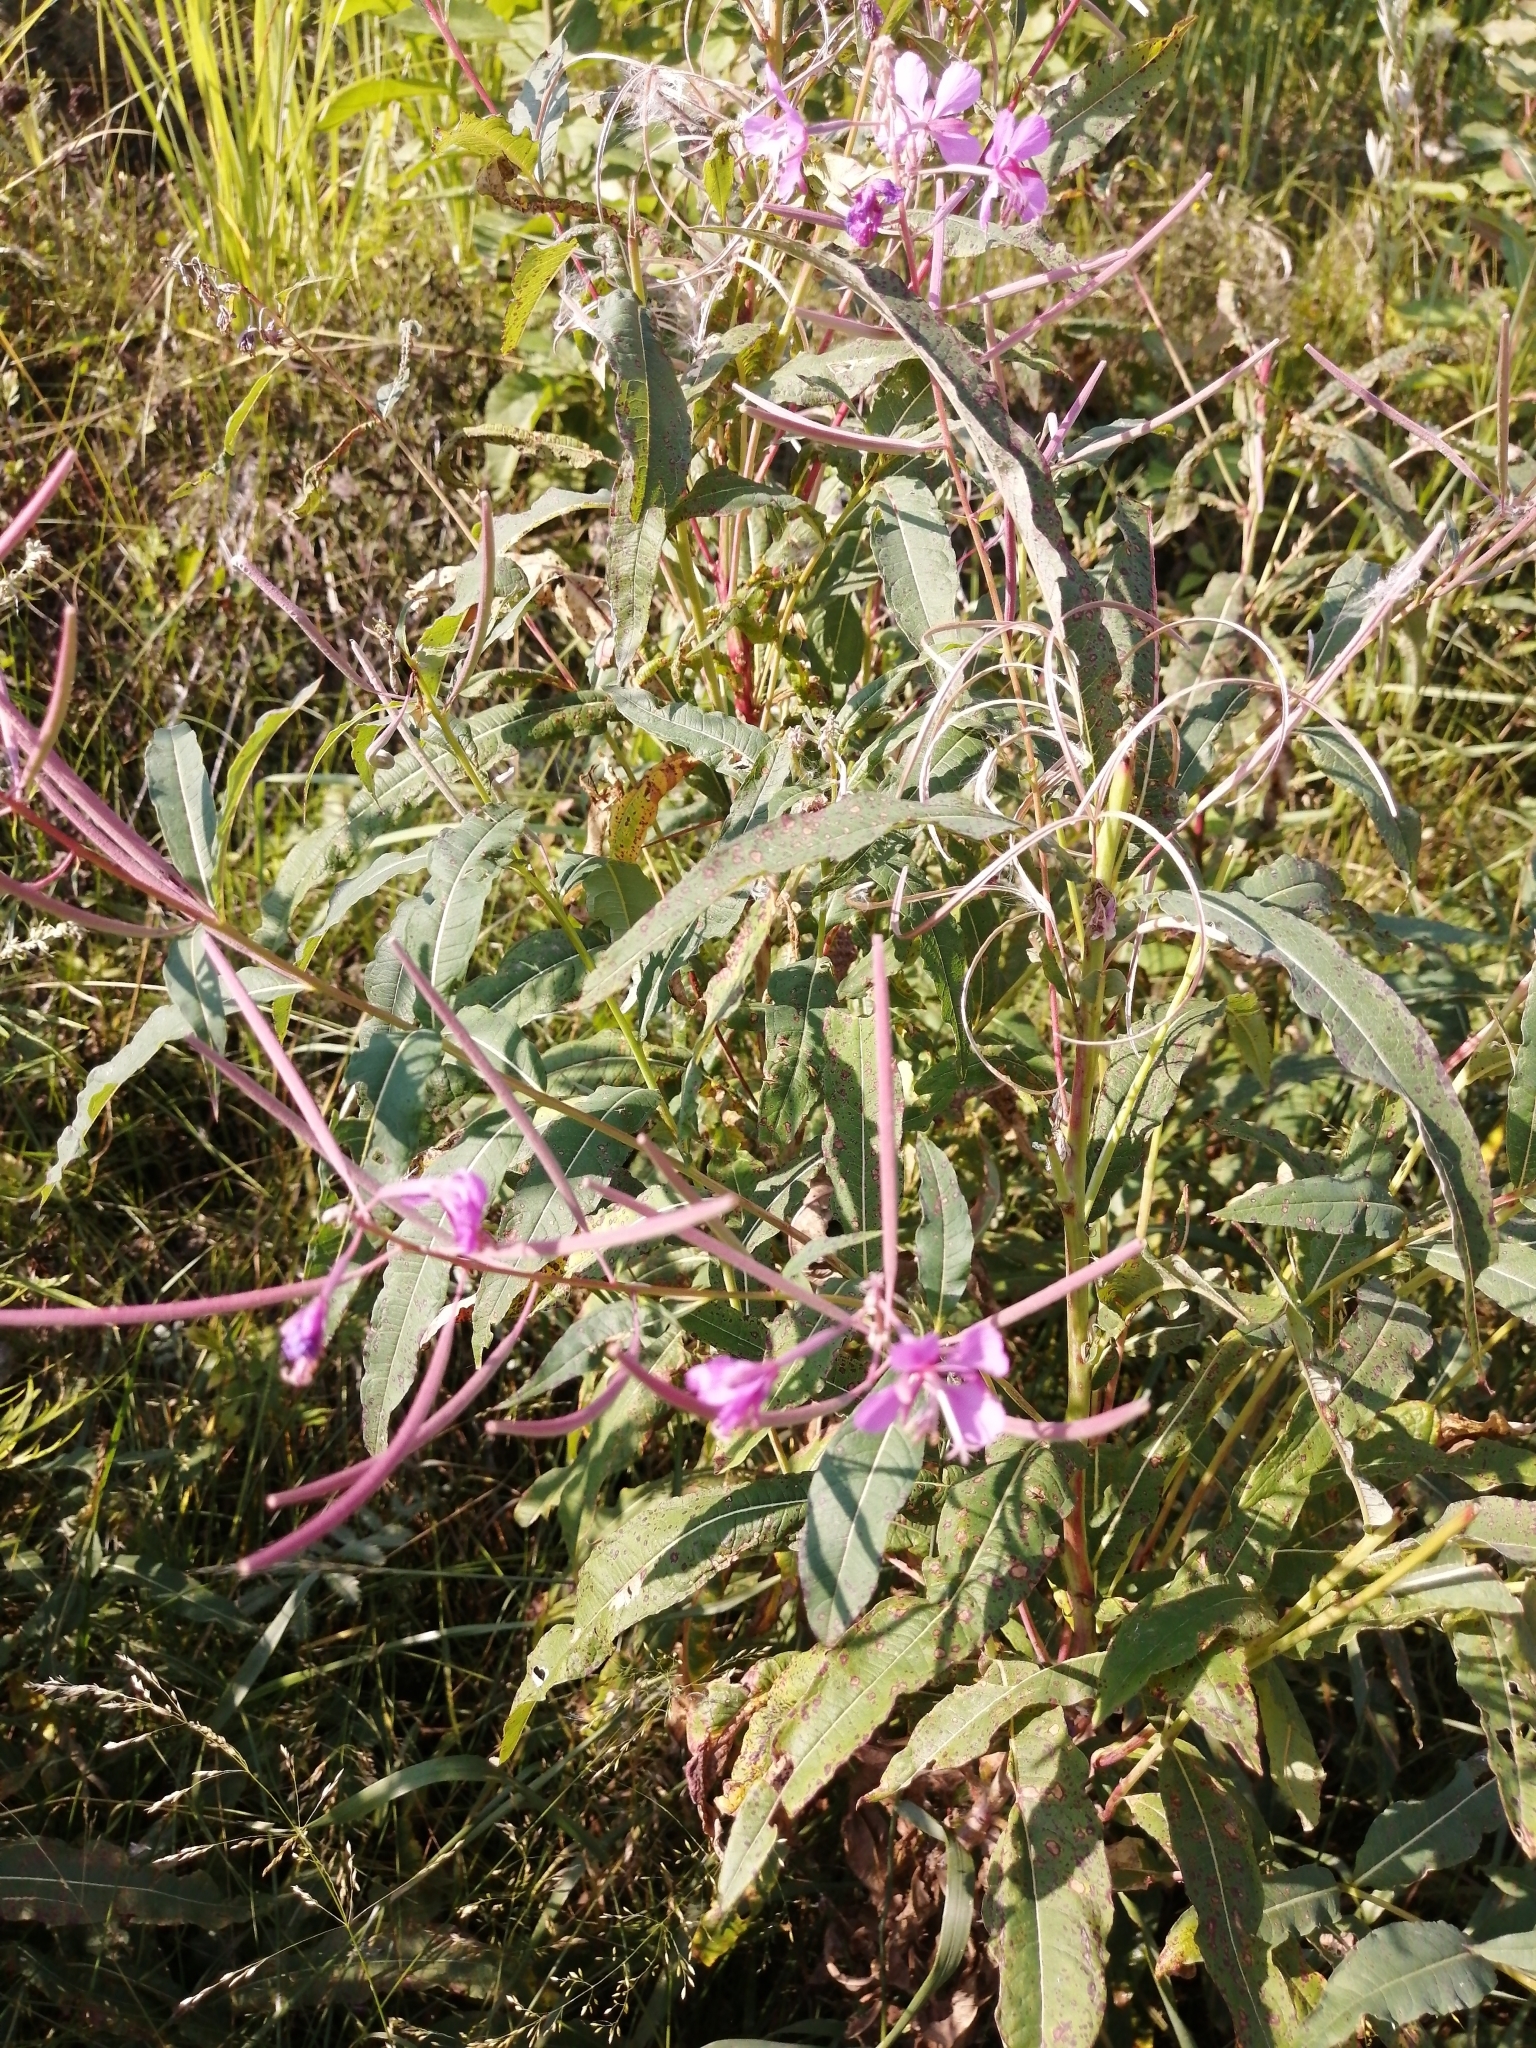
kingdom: Plantae
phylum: Tracheophyta
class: Magnoliopsida
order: Myrtales
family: Onagraceae
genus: Chamaenerion
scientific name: Chamaenerion angustifolium
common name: Fireweed
